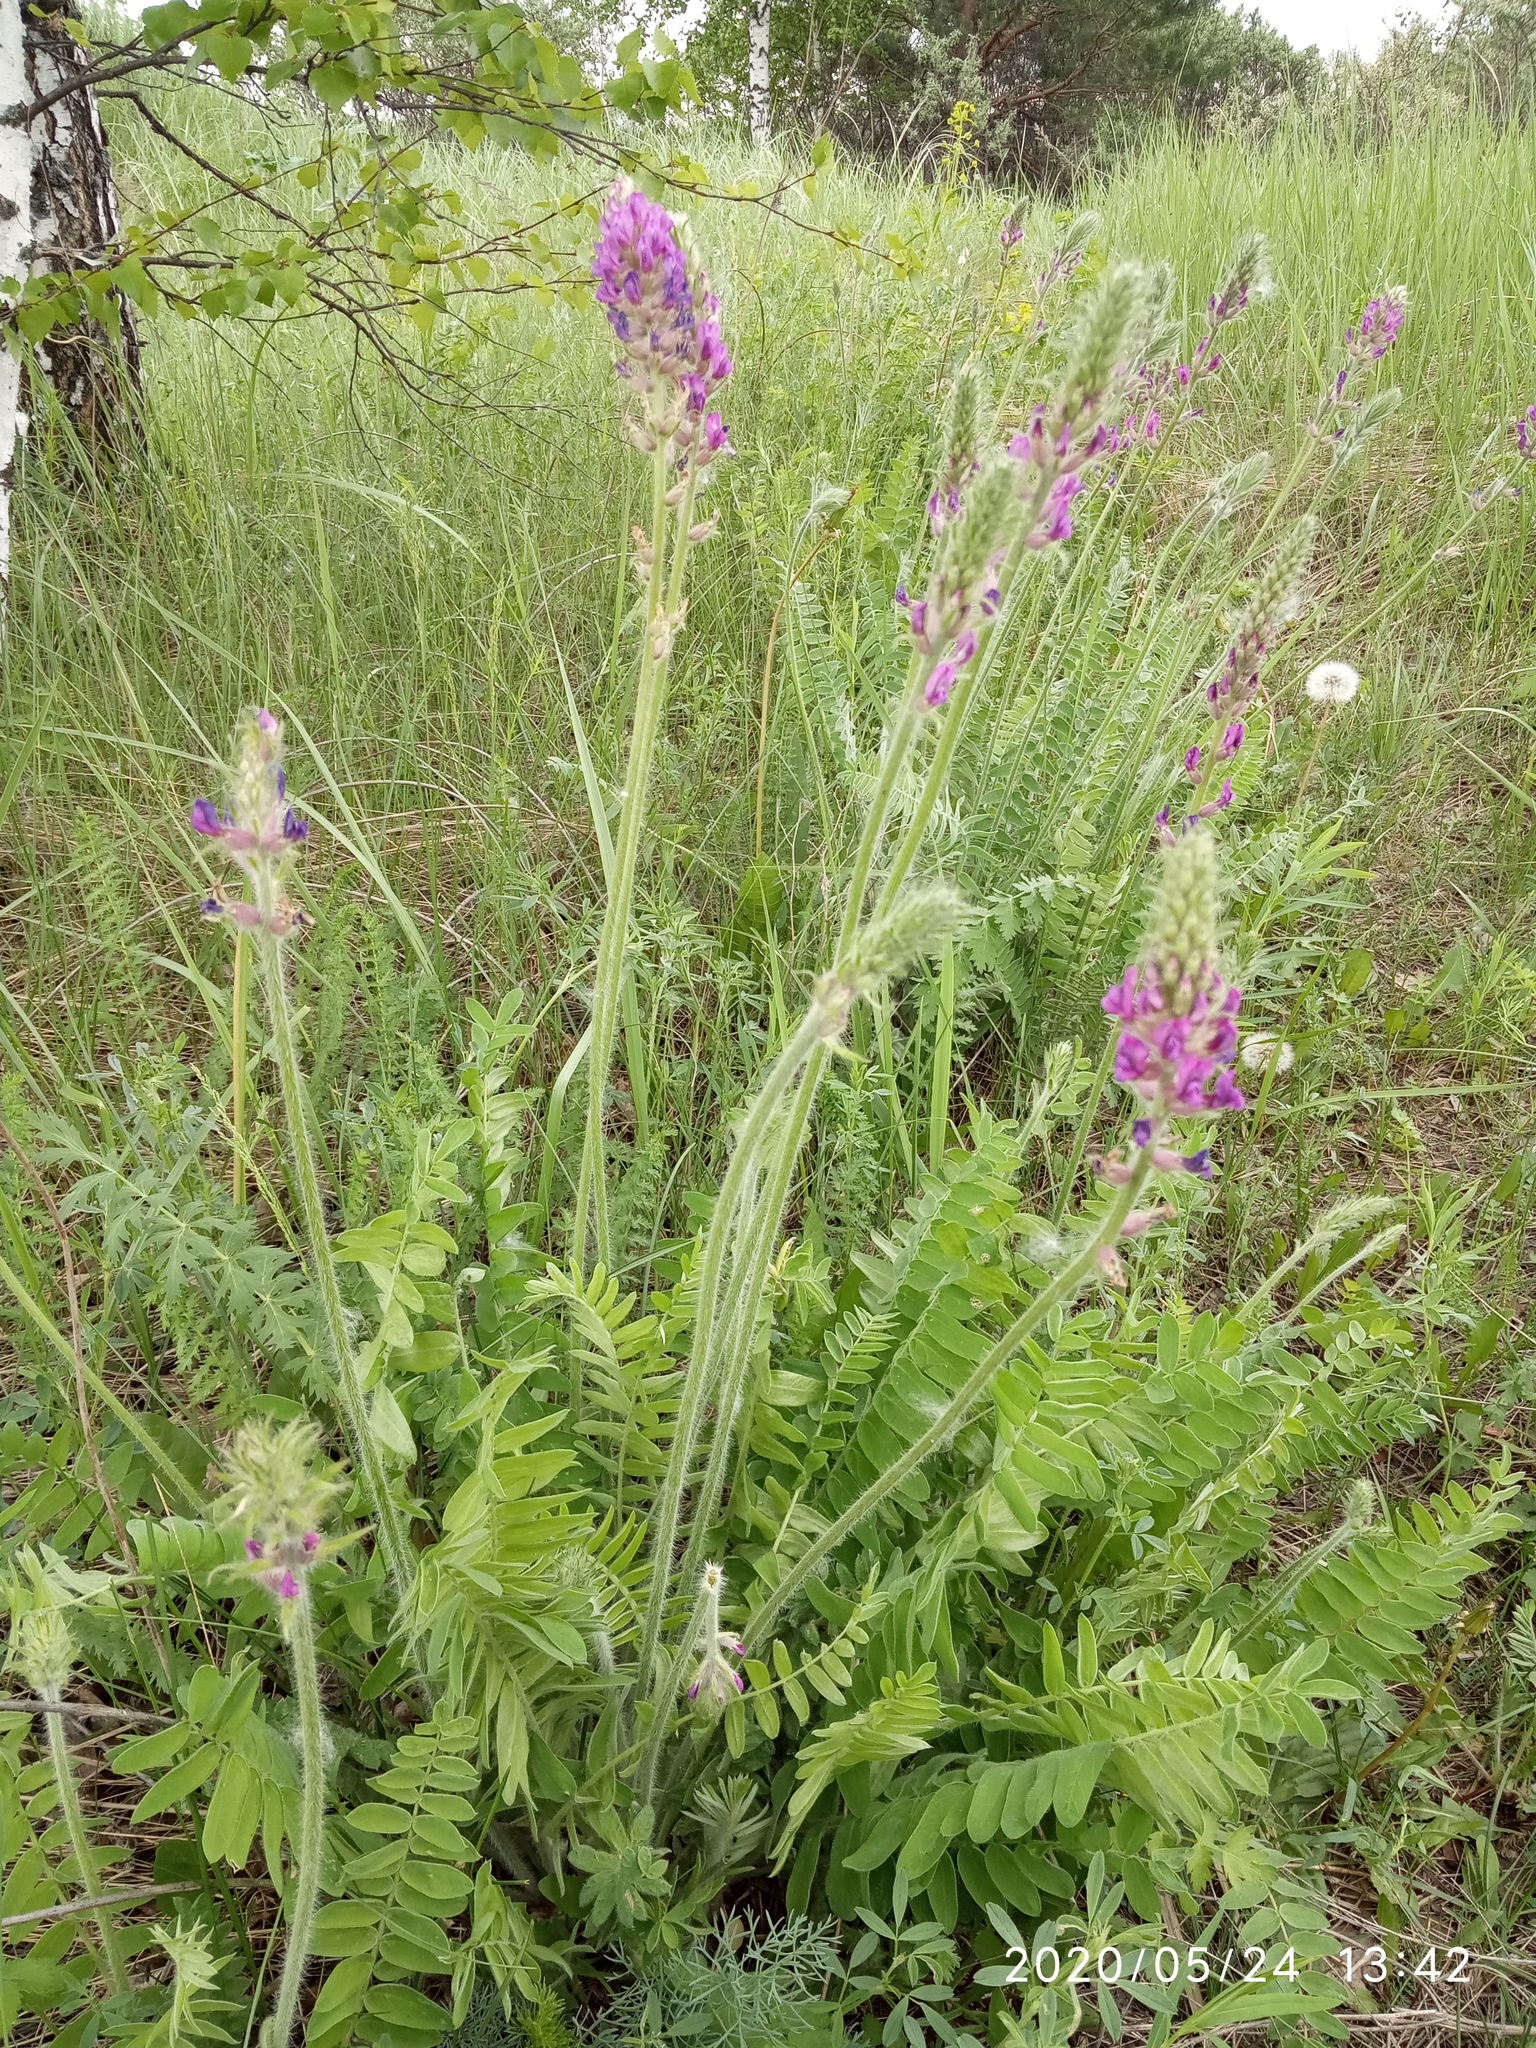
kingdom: Plantae
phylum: Tracheophyta
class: Magnoliopsida
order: Fabales
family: Fabaceae
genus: Oxytropis
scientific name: Oxytropis campanulata
